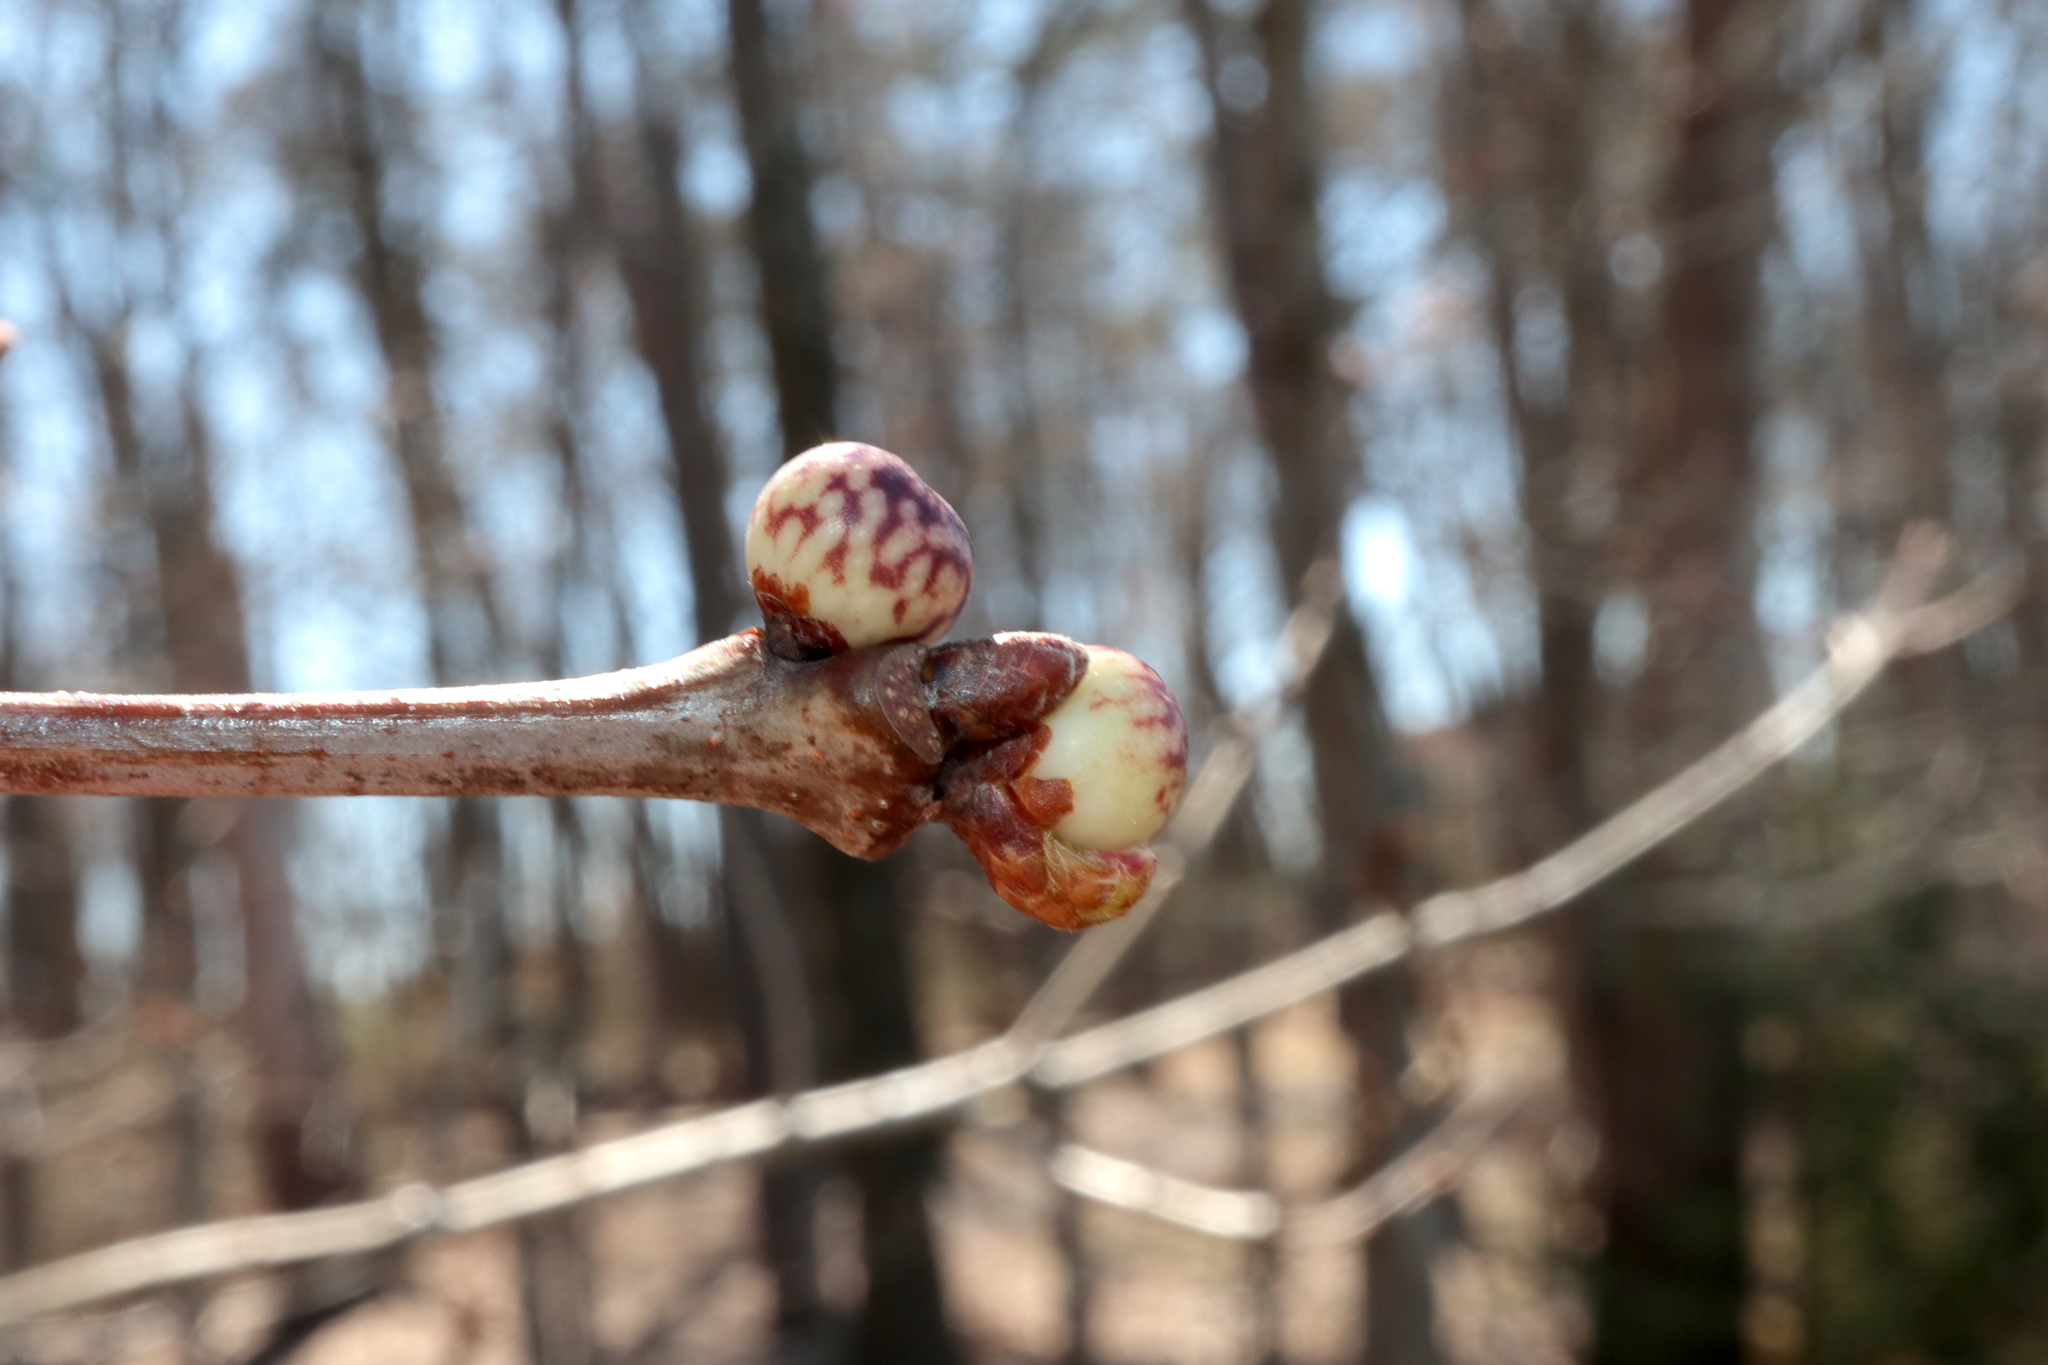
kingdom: Animalia
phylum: Arthropoda
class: Insecta
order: Hymenoptera
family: Cynipidae
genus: Andricus
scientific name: Andricus
